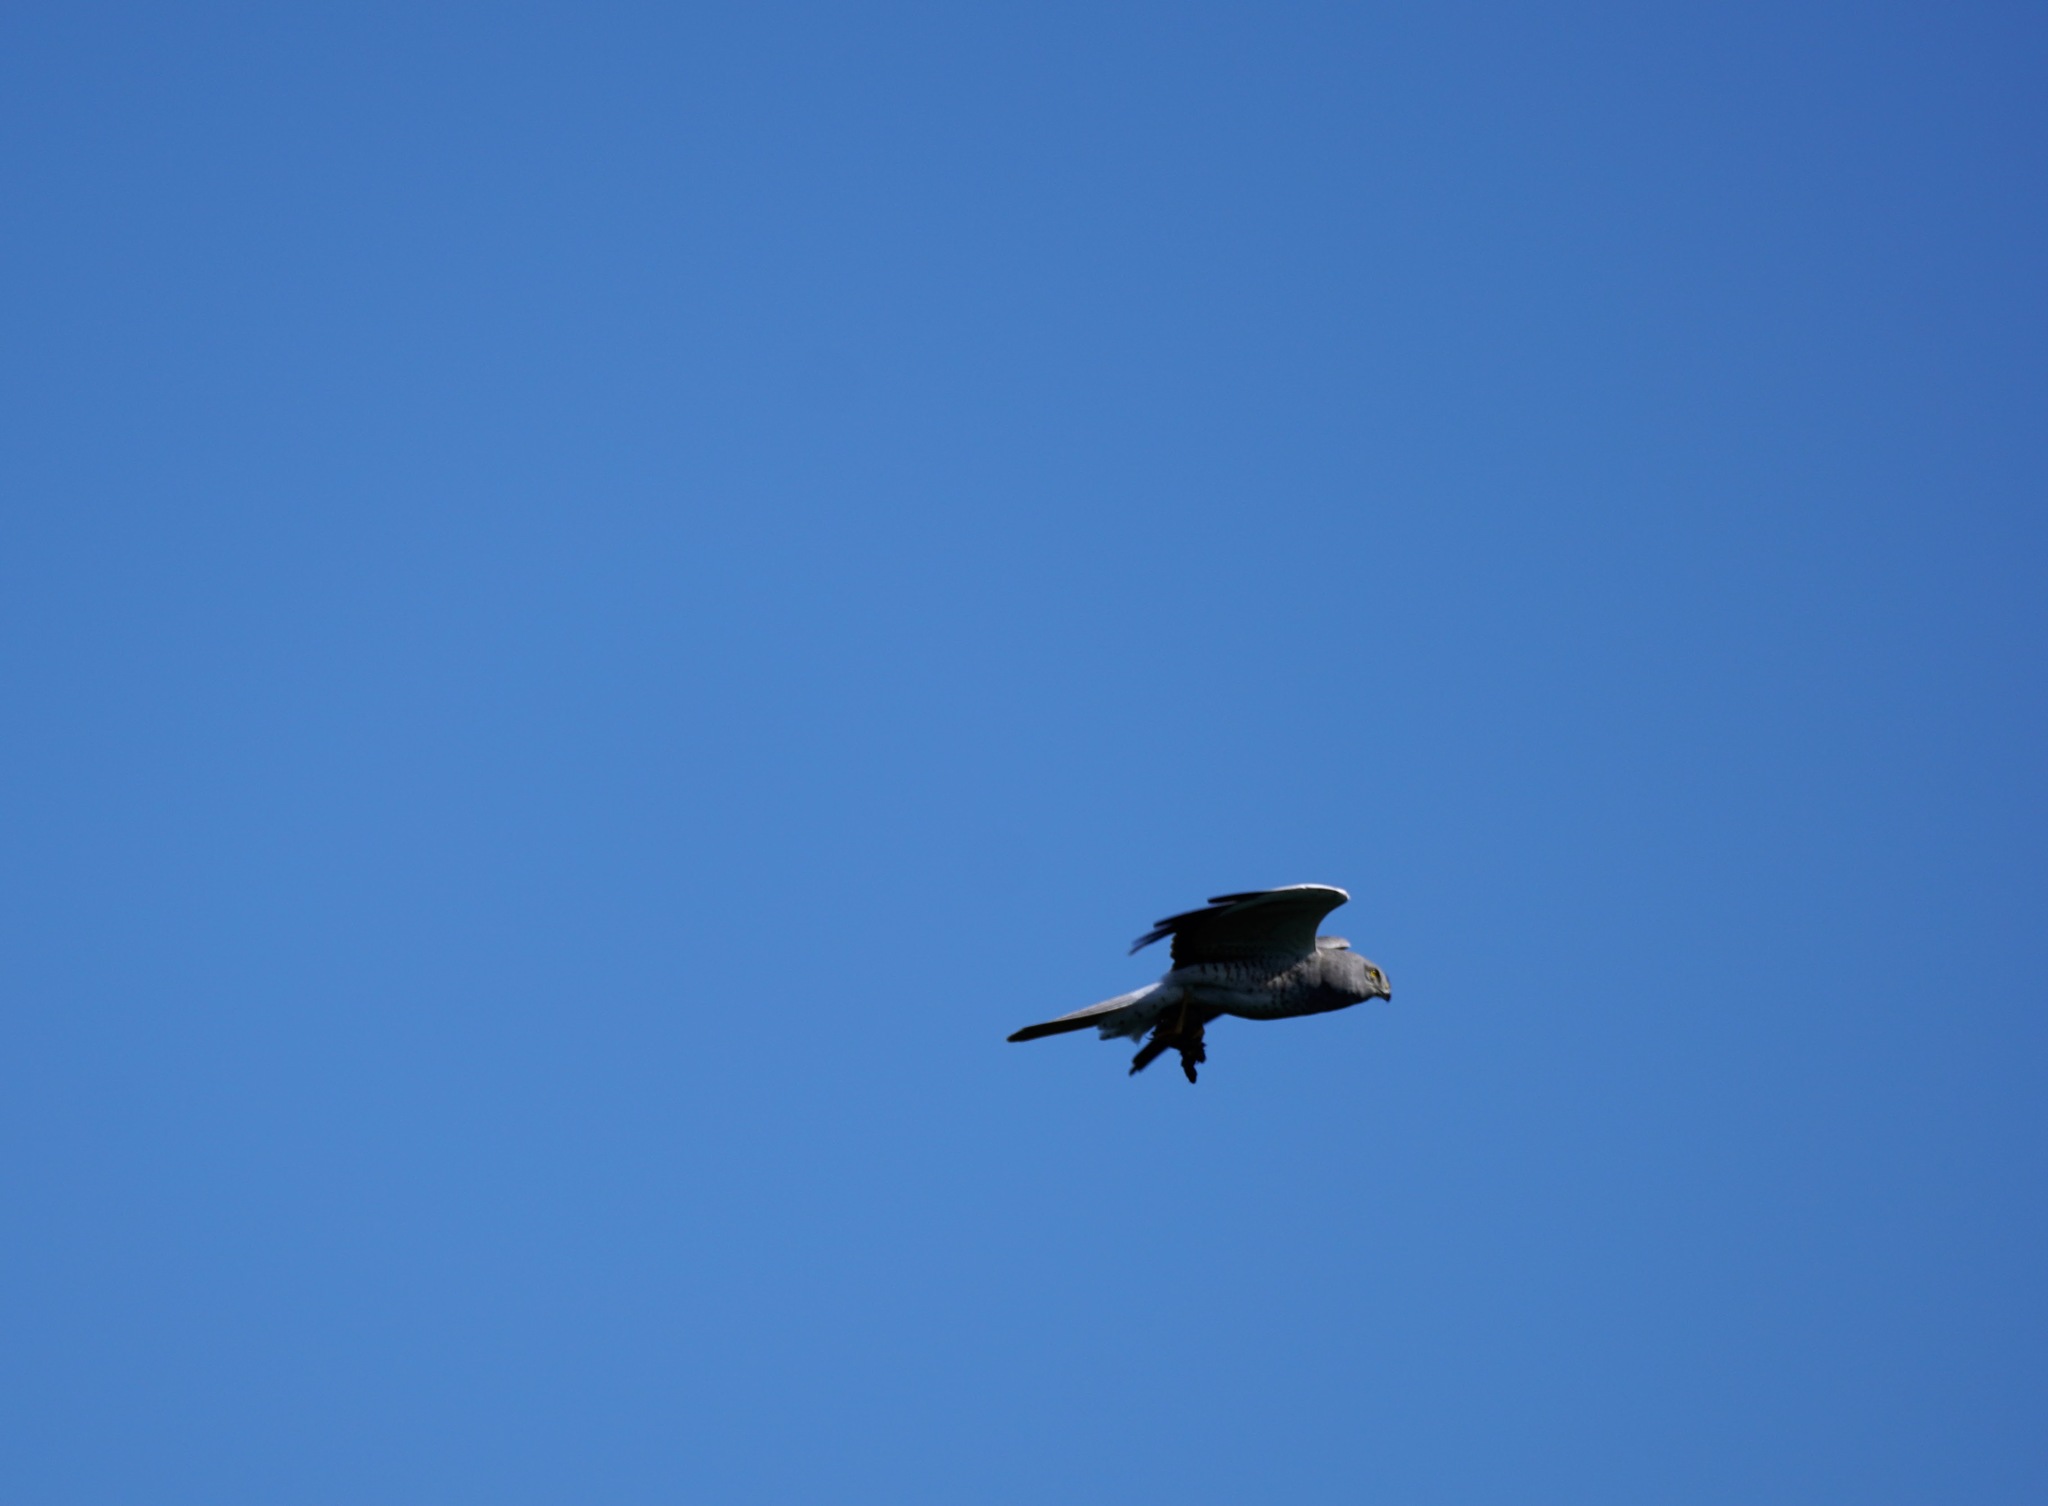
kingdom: Animalia
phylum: Chordata
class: Aves
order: Accipitriformes
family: Accipitridae
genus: Circus
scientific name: Circus cyaneus
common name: Hen harrier
